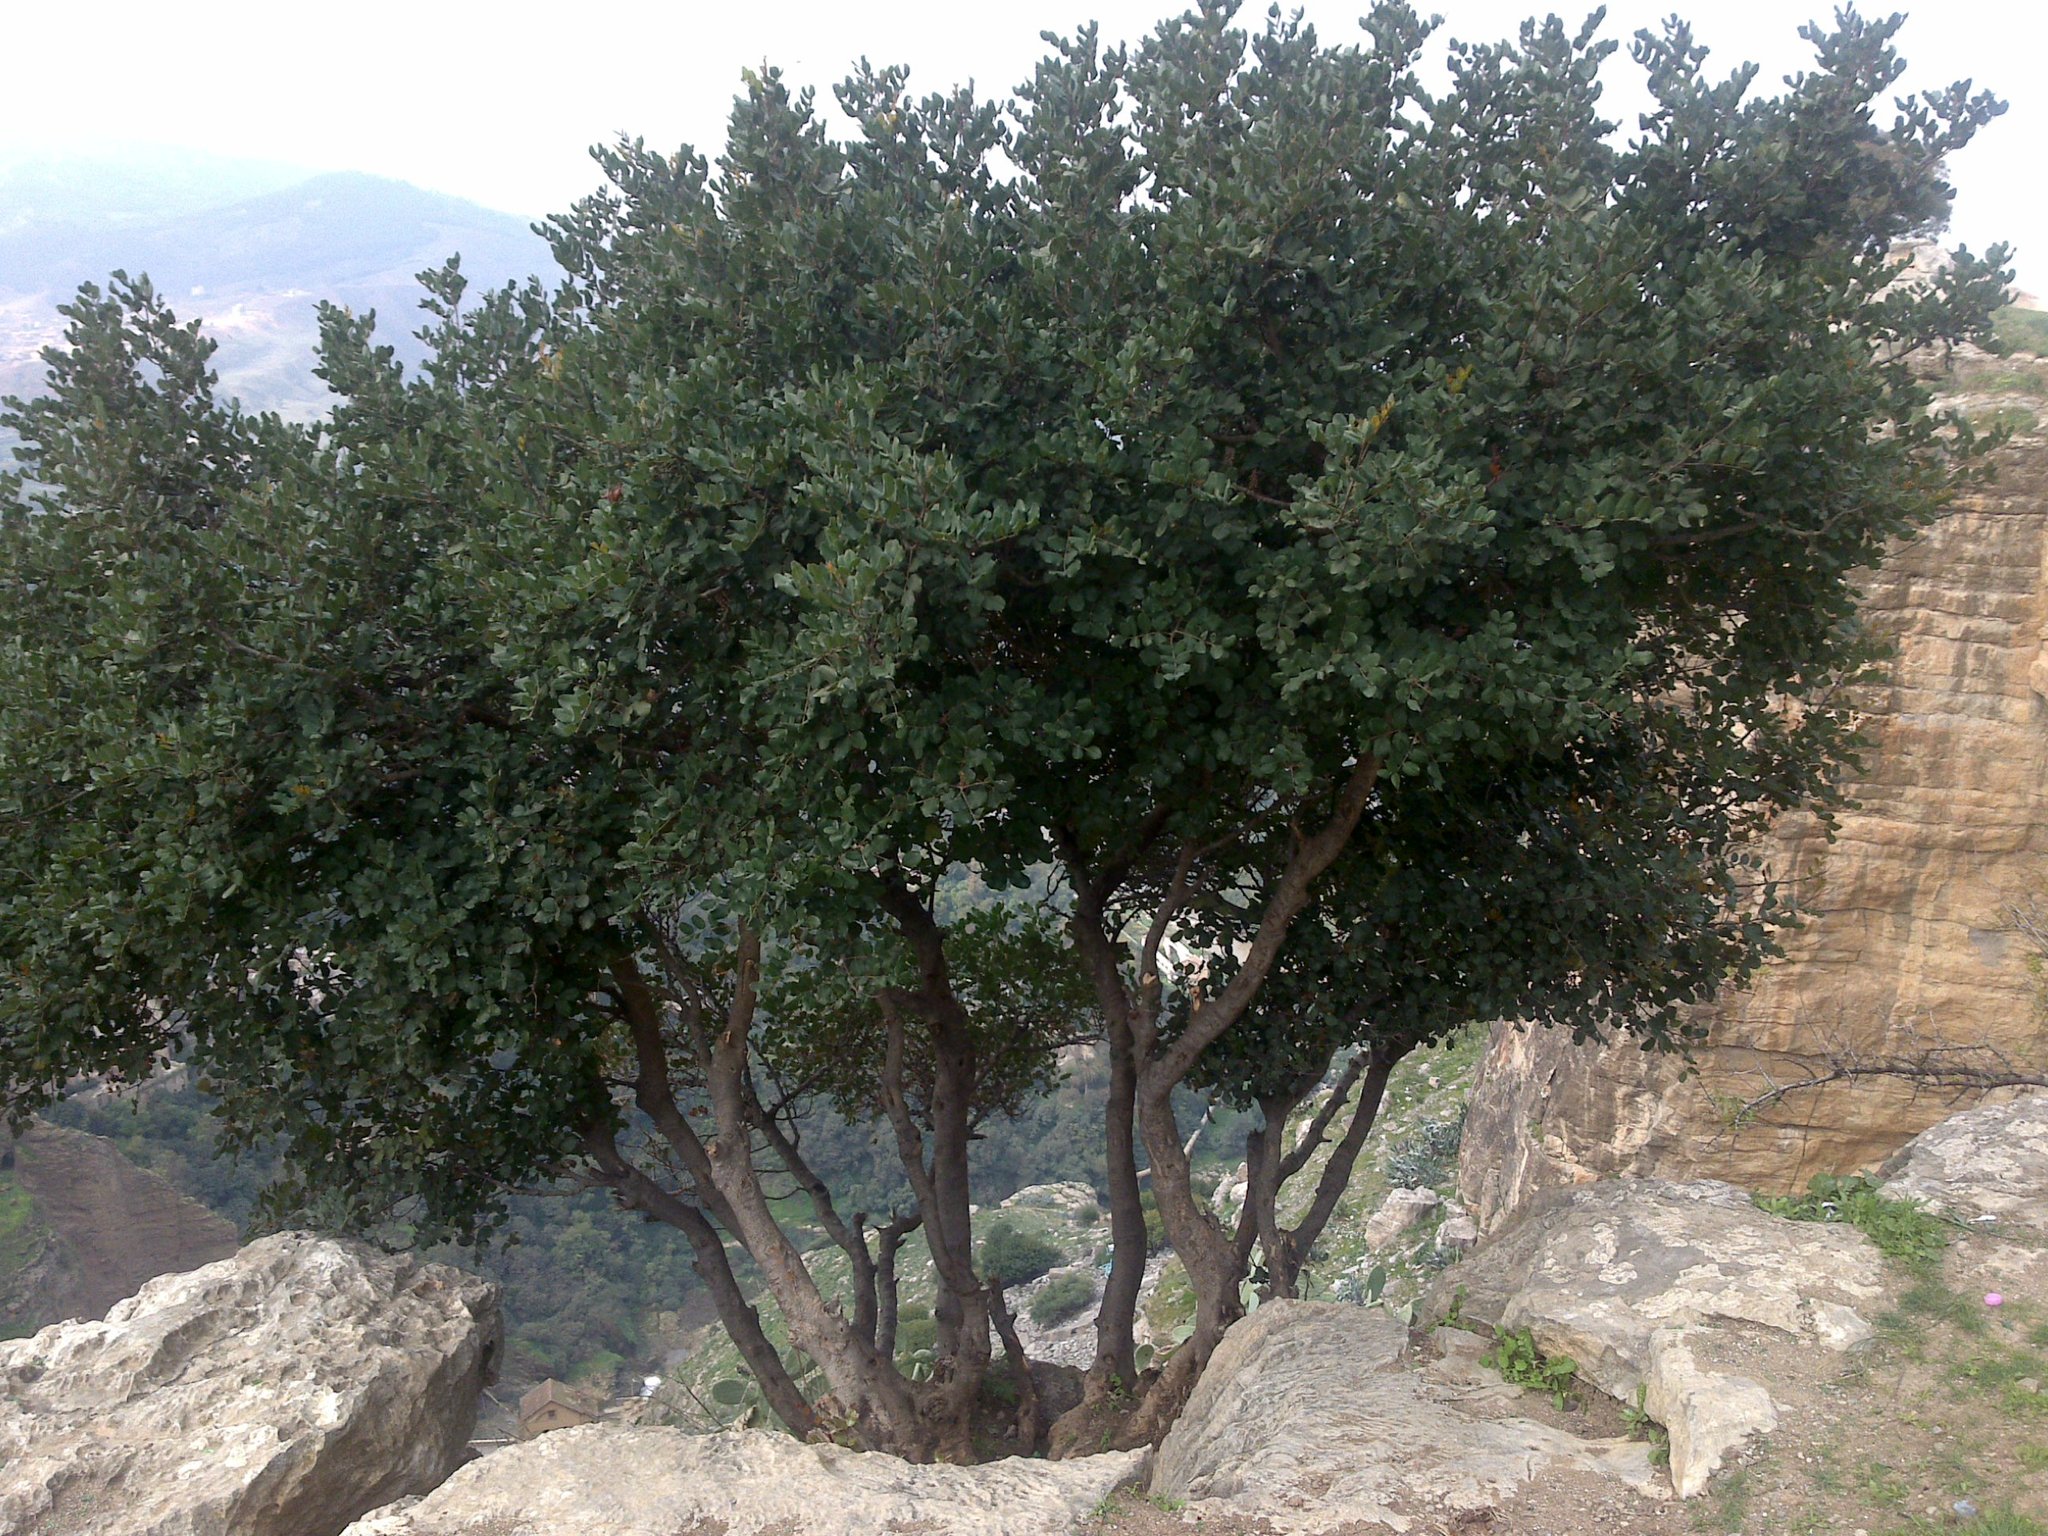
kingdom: Plantae
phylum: Tracheophyta
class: Magnoliopsida
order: Fabales
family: Fabaceae
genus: Ceratonia
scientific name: Ceratonia siliqua
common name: Carob
